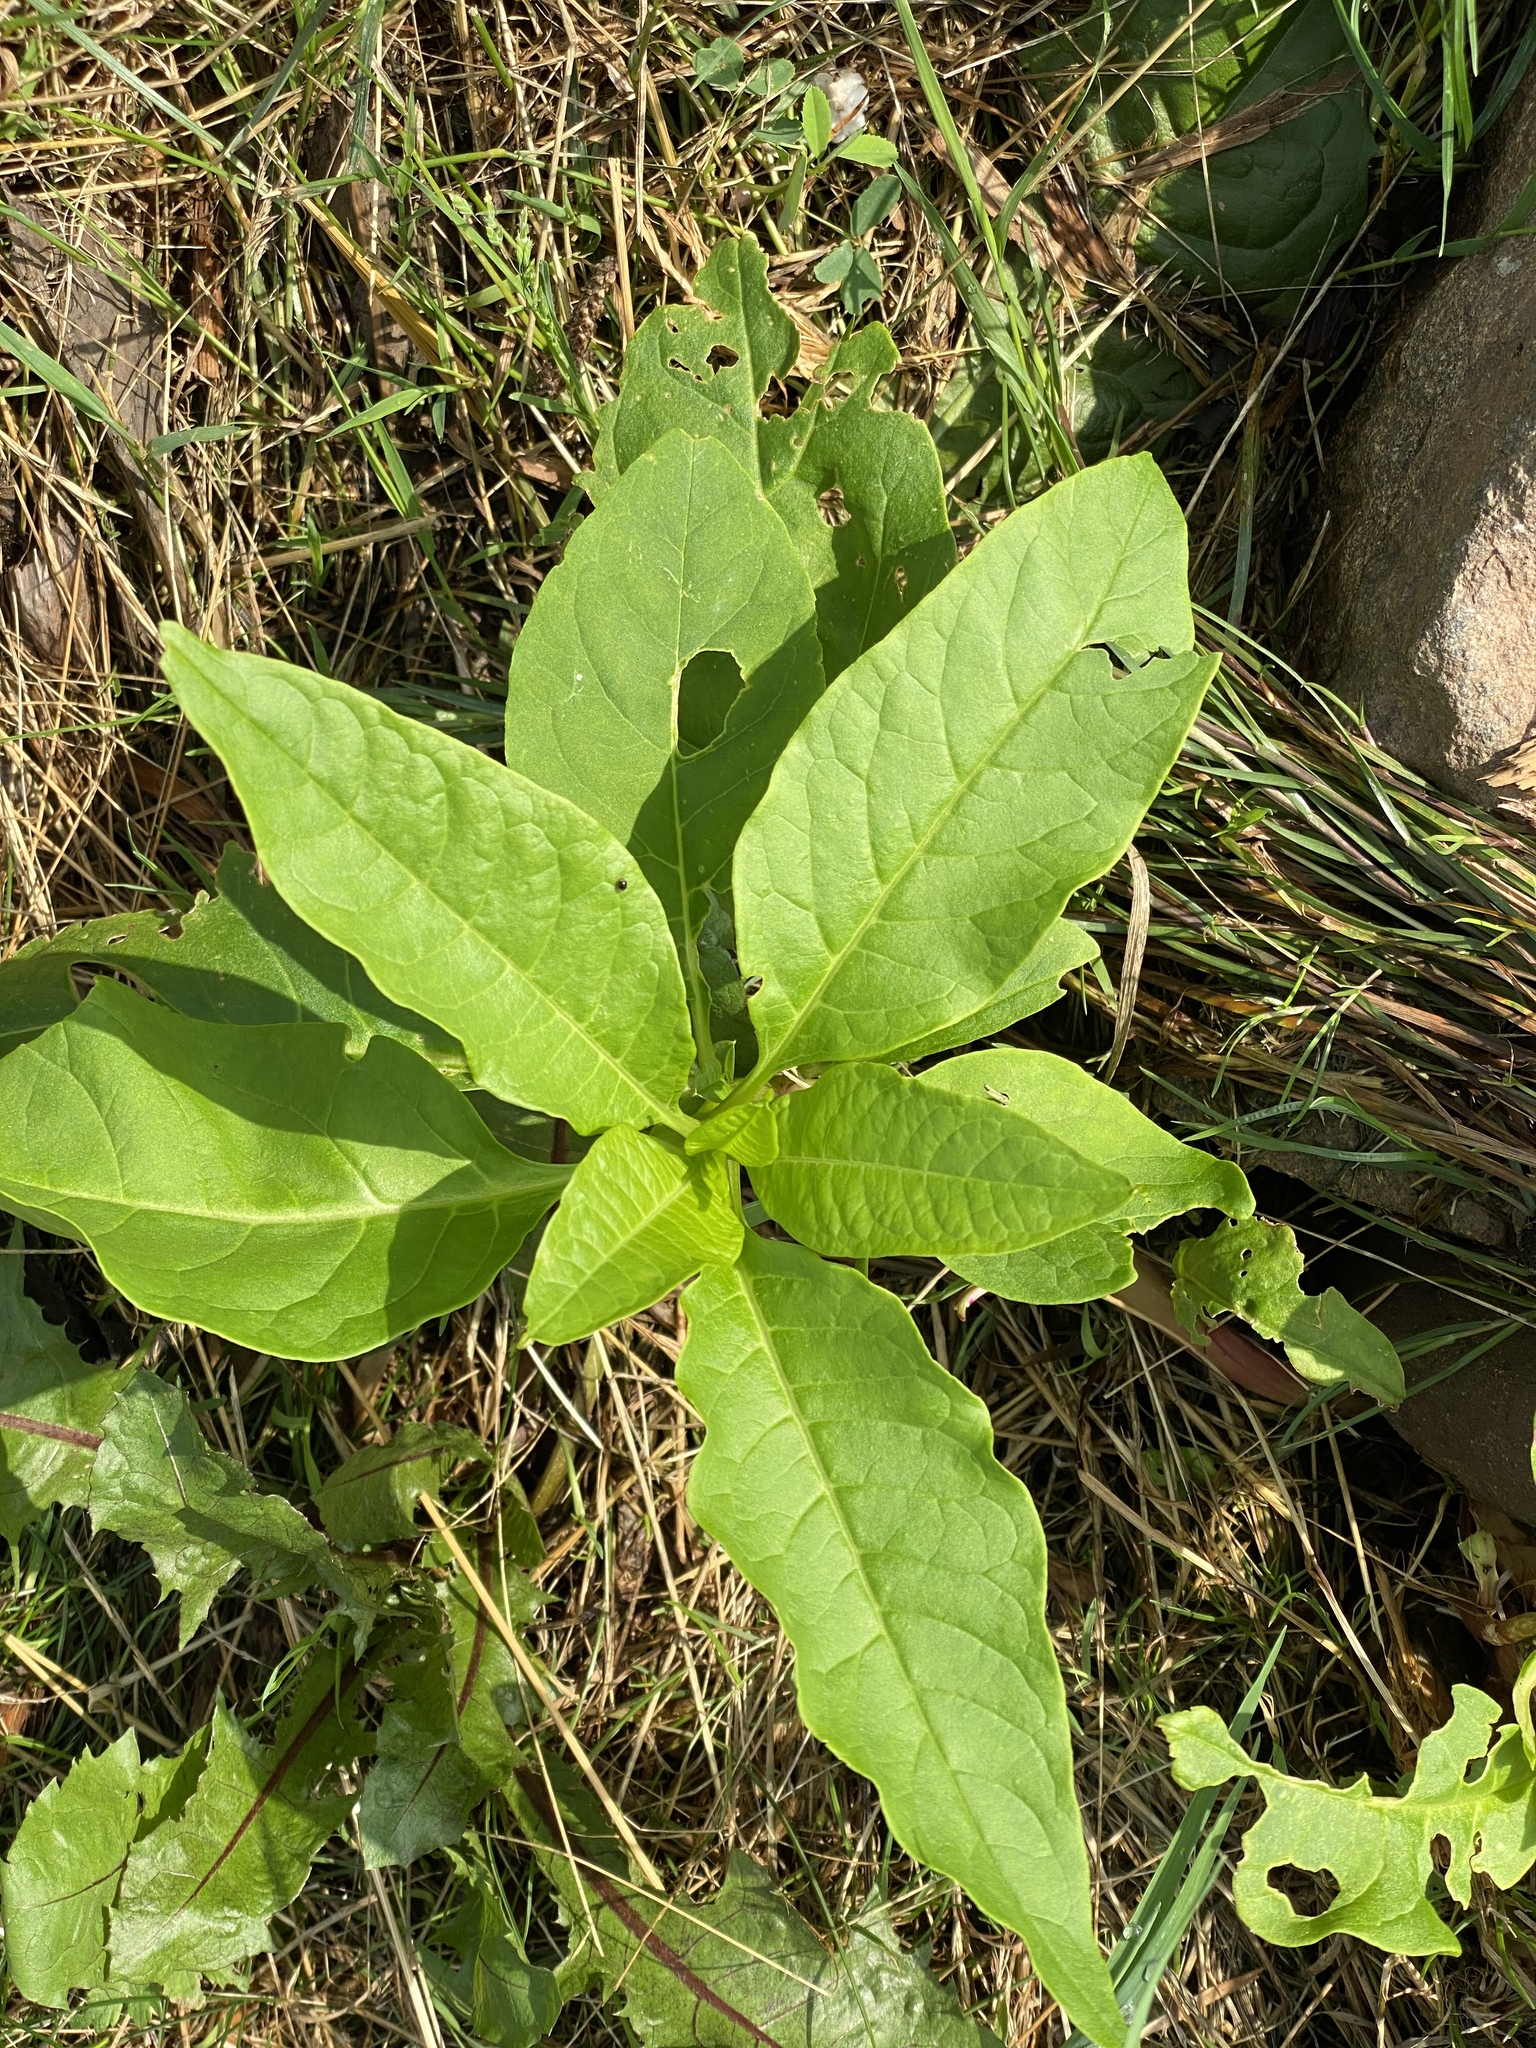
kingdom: Plantae
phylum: Tracheophyta
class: Magnoliopsida
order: Caryophyllales
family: Phytolaccaceae
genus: Phytolacca
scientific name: Phytolacca americana
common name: American pokeweed
